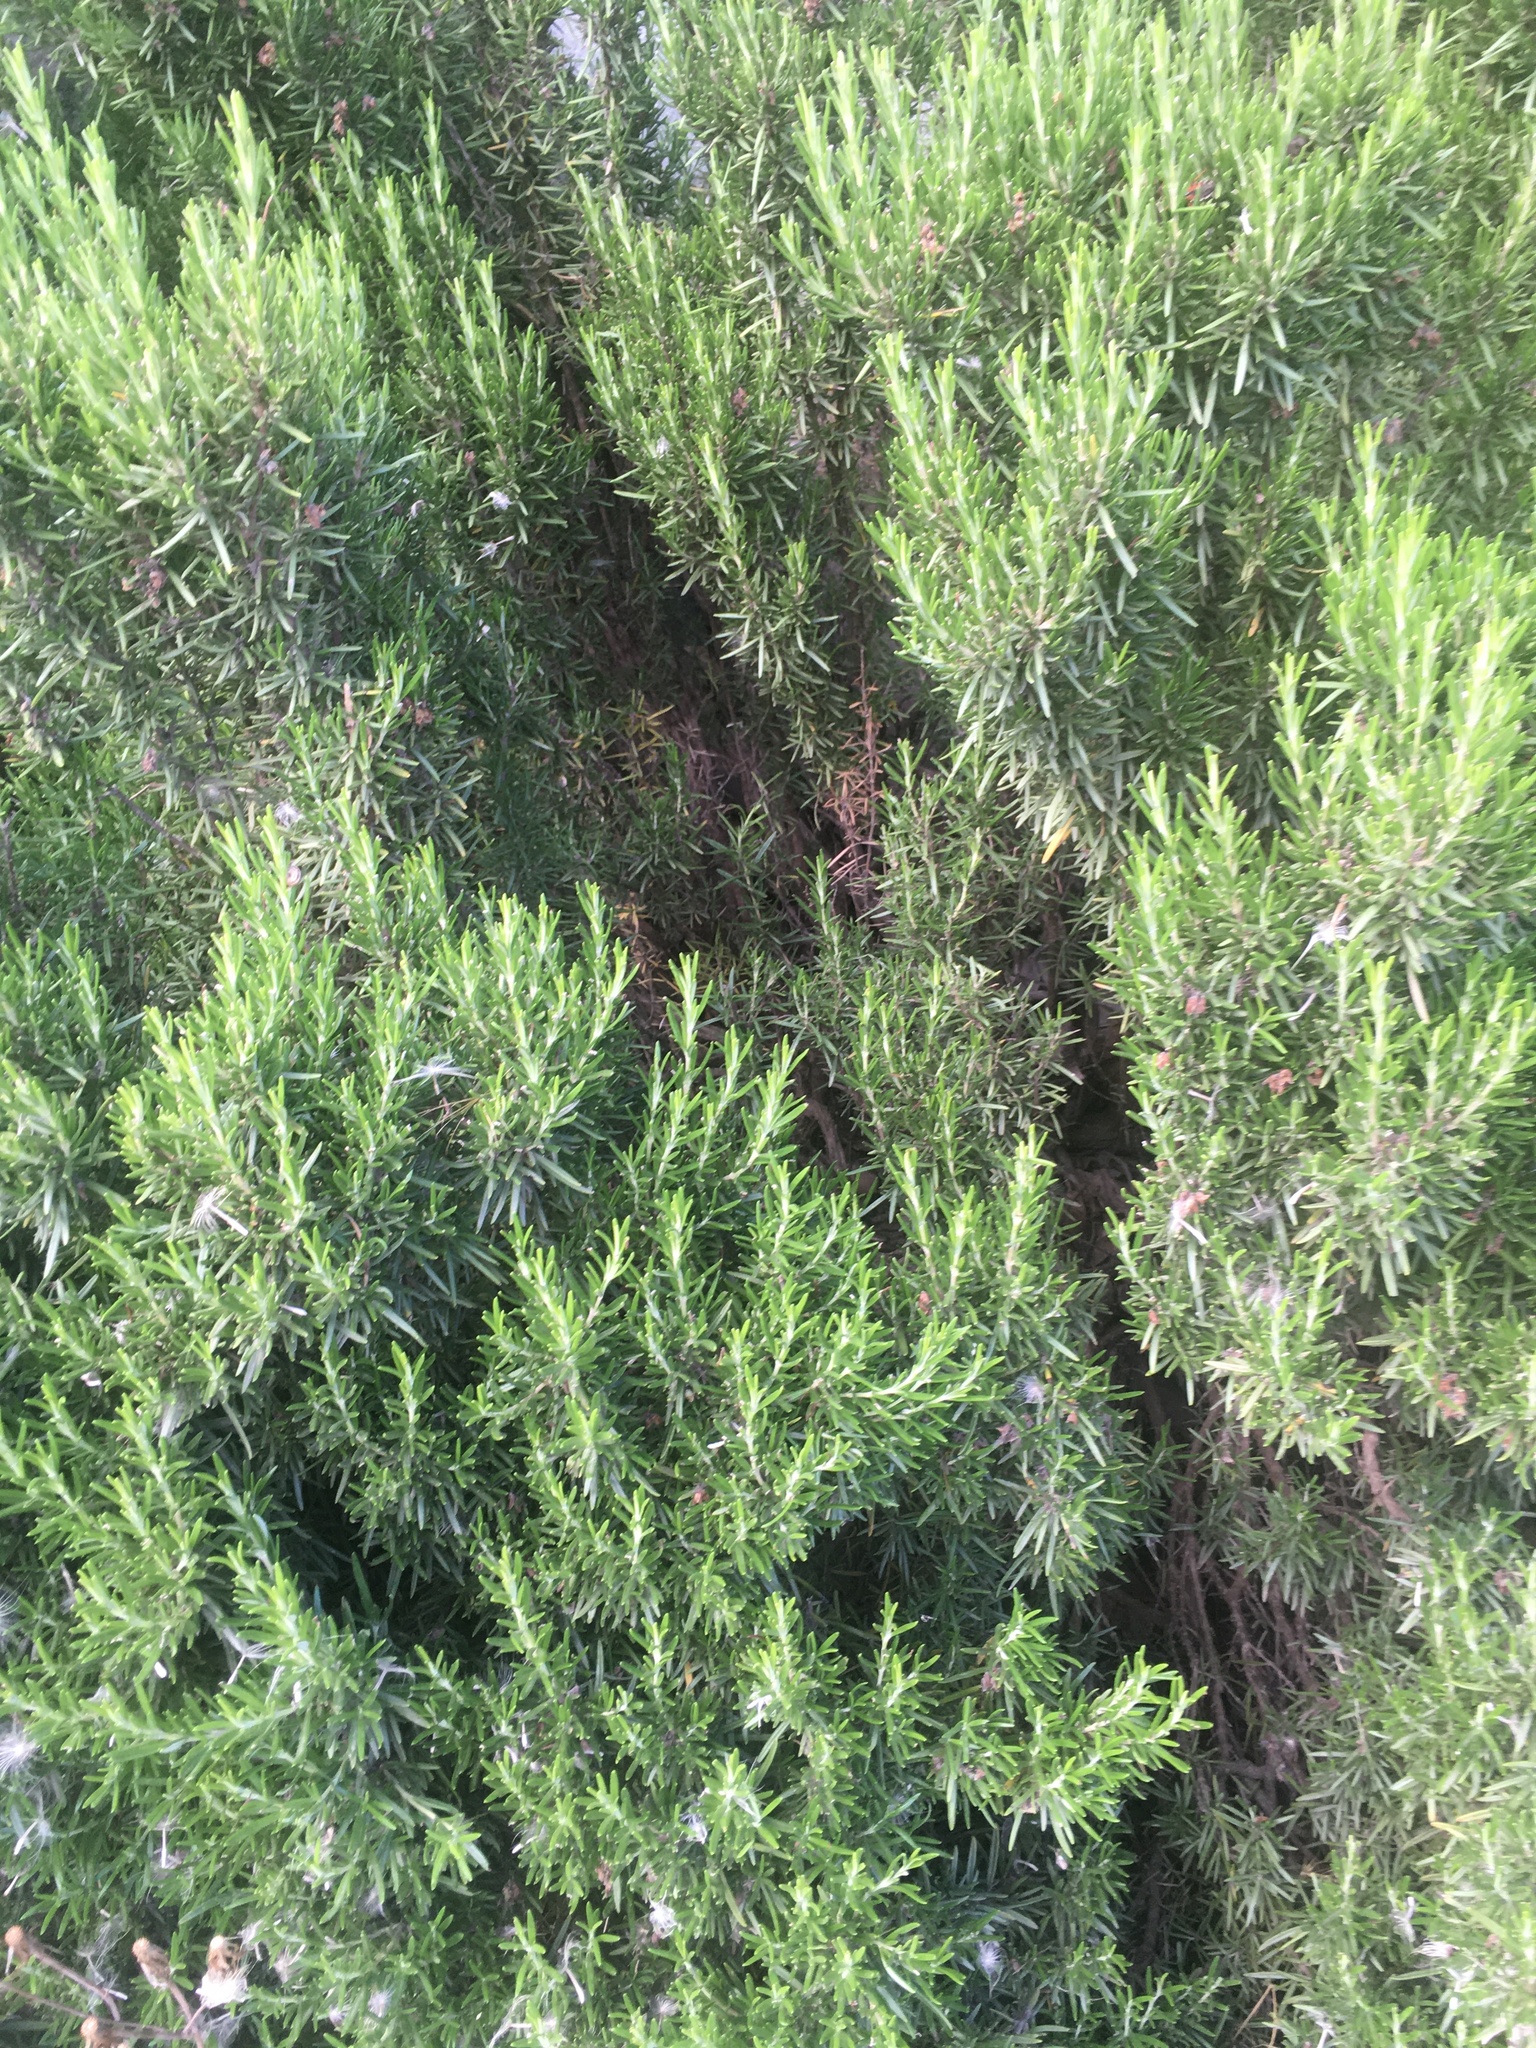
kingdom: Plantae
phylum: Tracheophyta
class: Magnoliopsida
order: Lamiales
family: Lamiaceae
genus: Salvia
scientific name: Salvia rosmarinus
